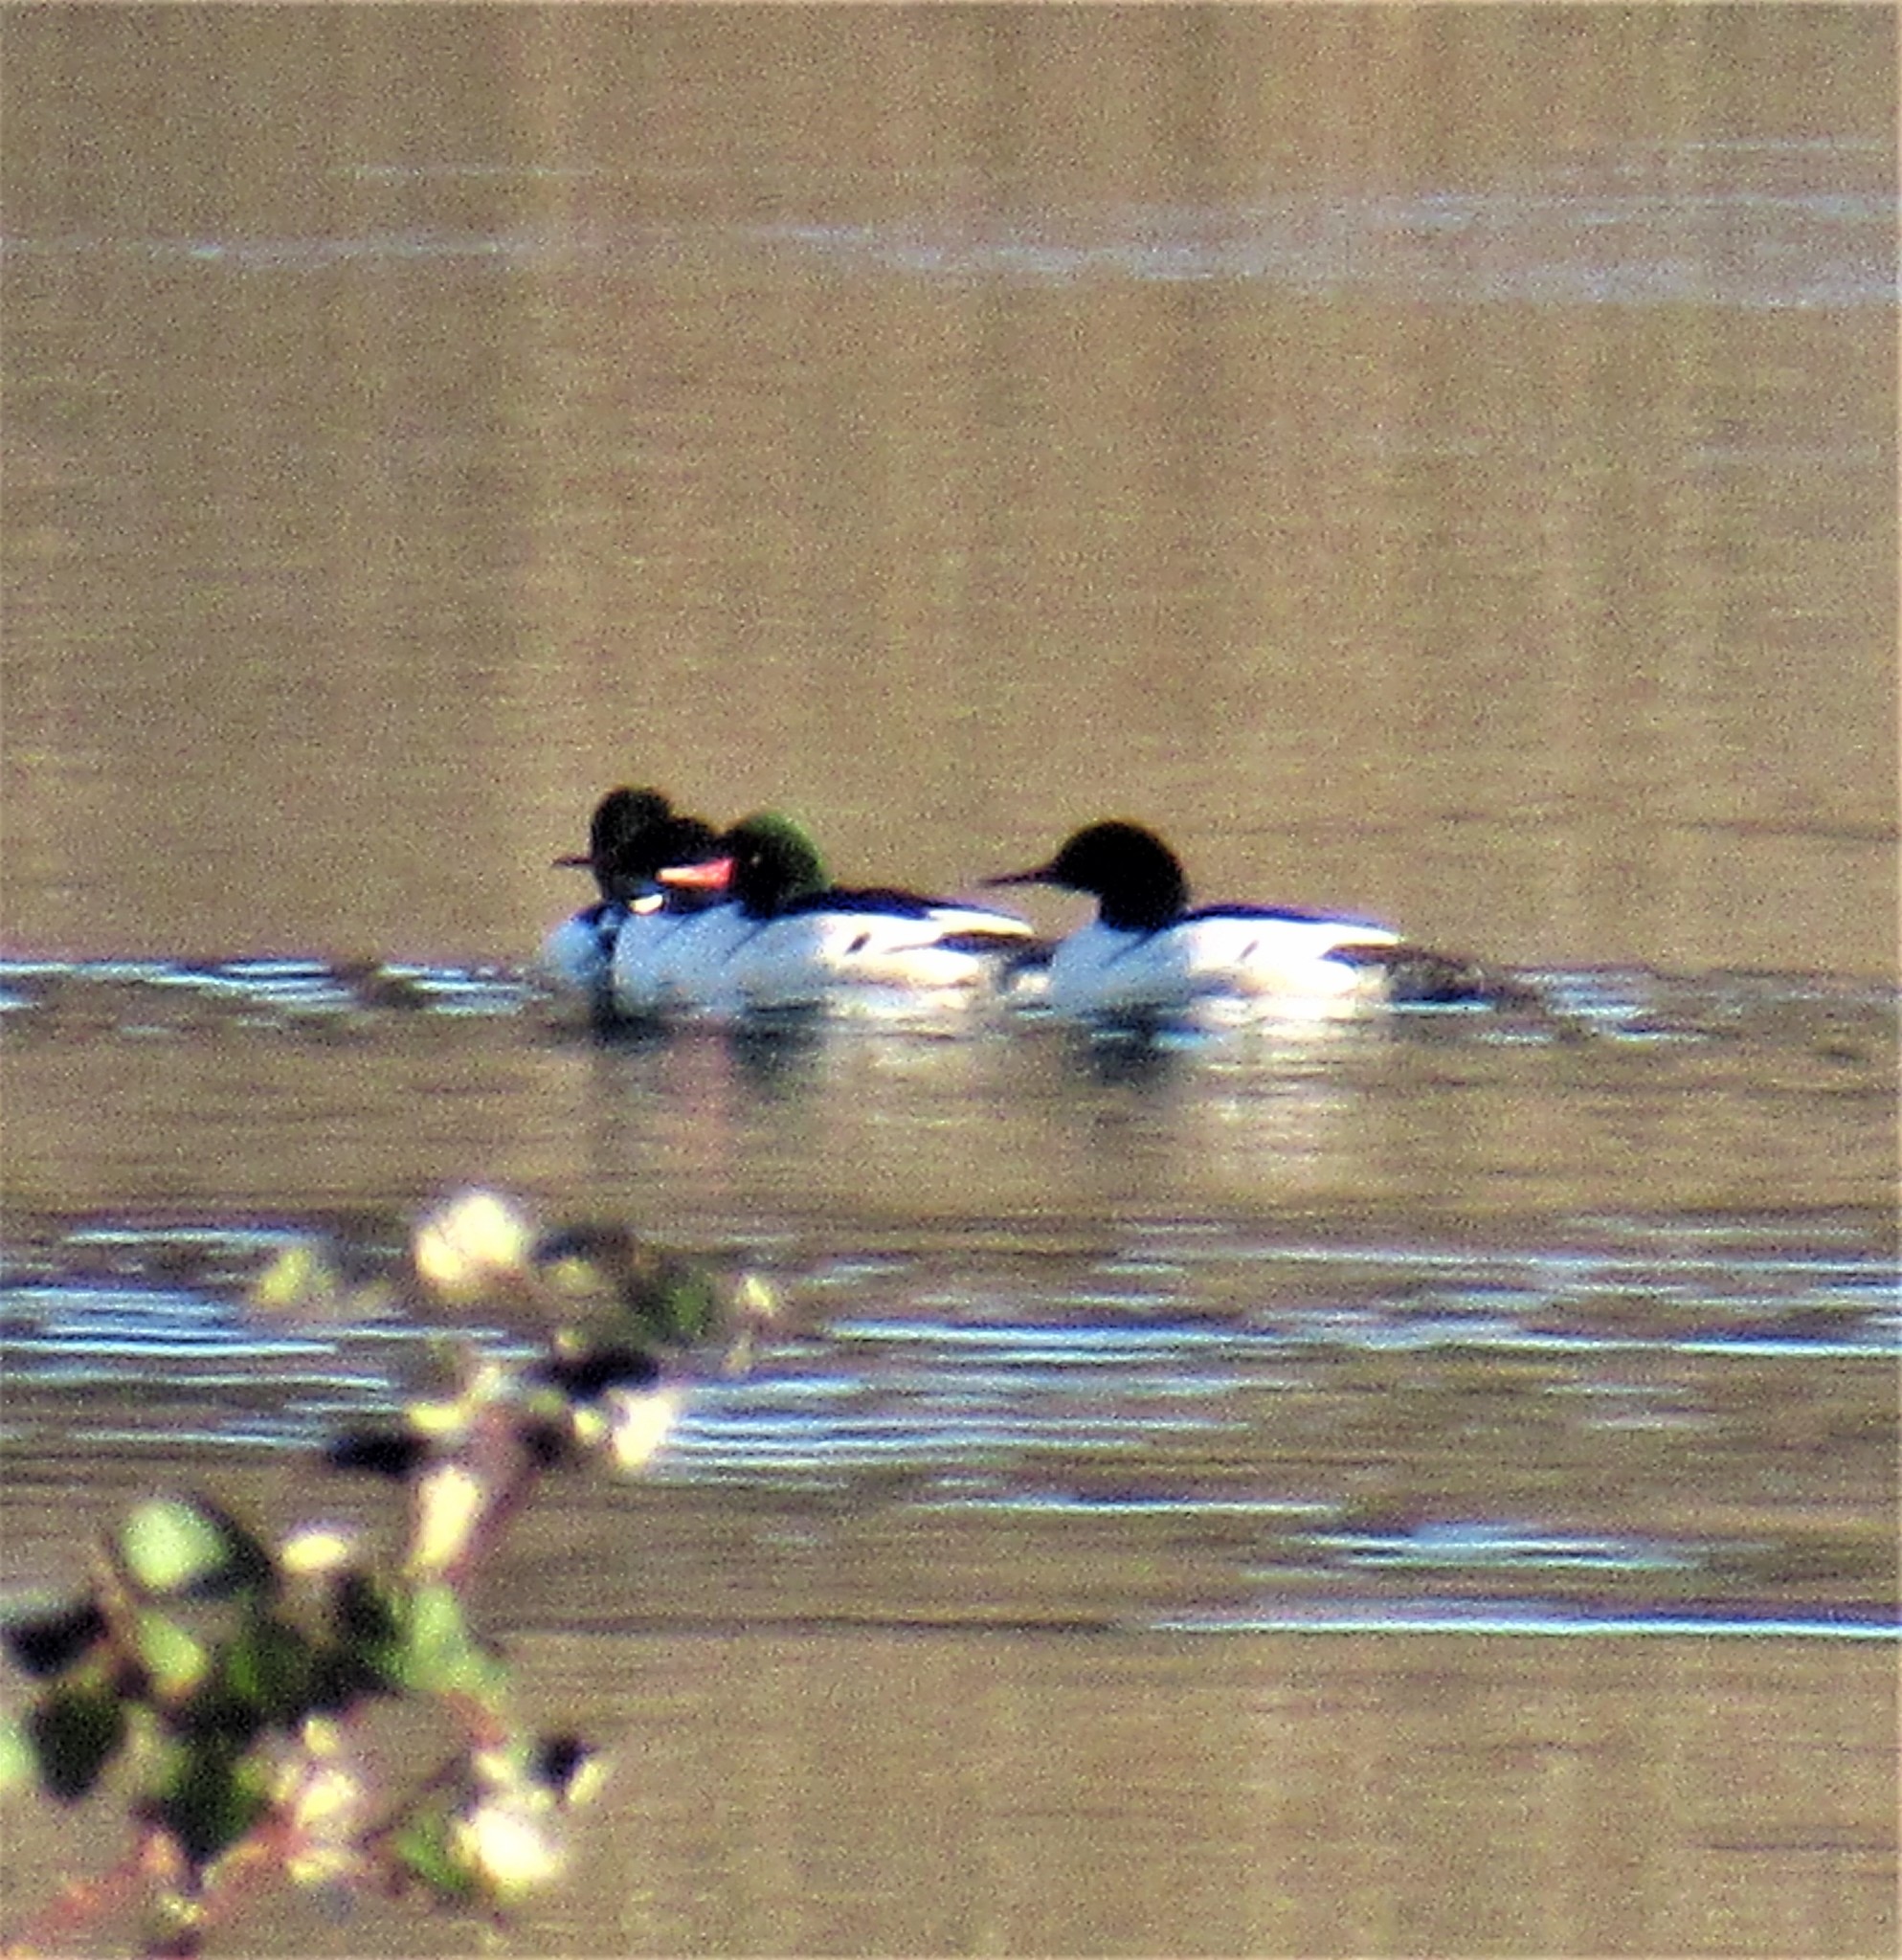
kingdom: Animalia
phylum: Chordata
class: Aves
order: Anseriformes
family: Anatidae
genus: Mergus
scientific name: Mergus merganser
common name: Common merganser
